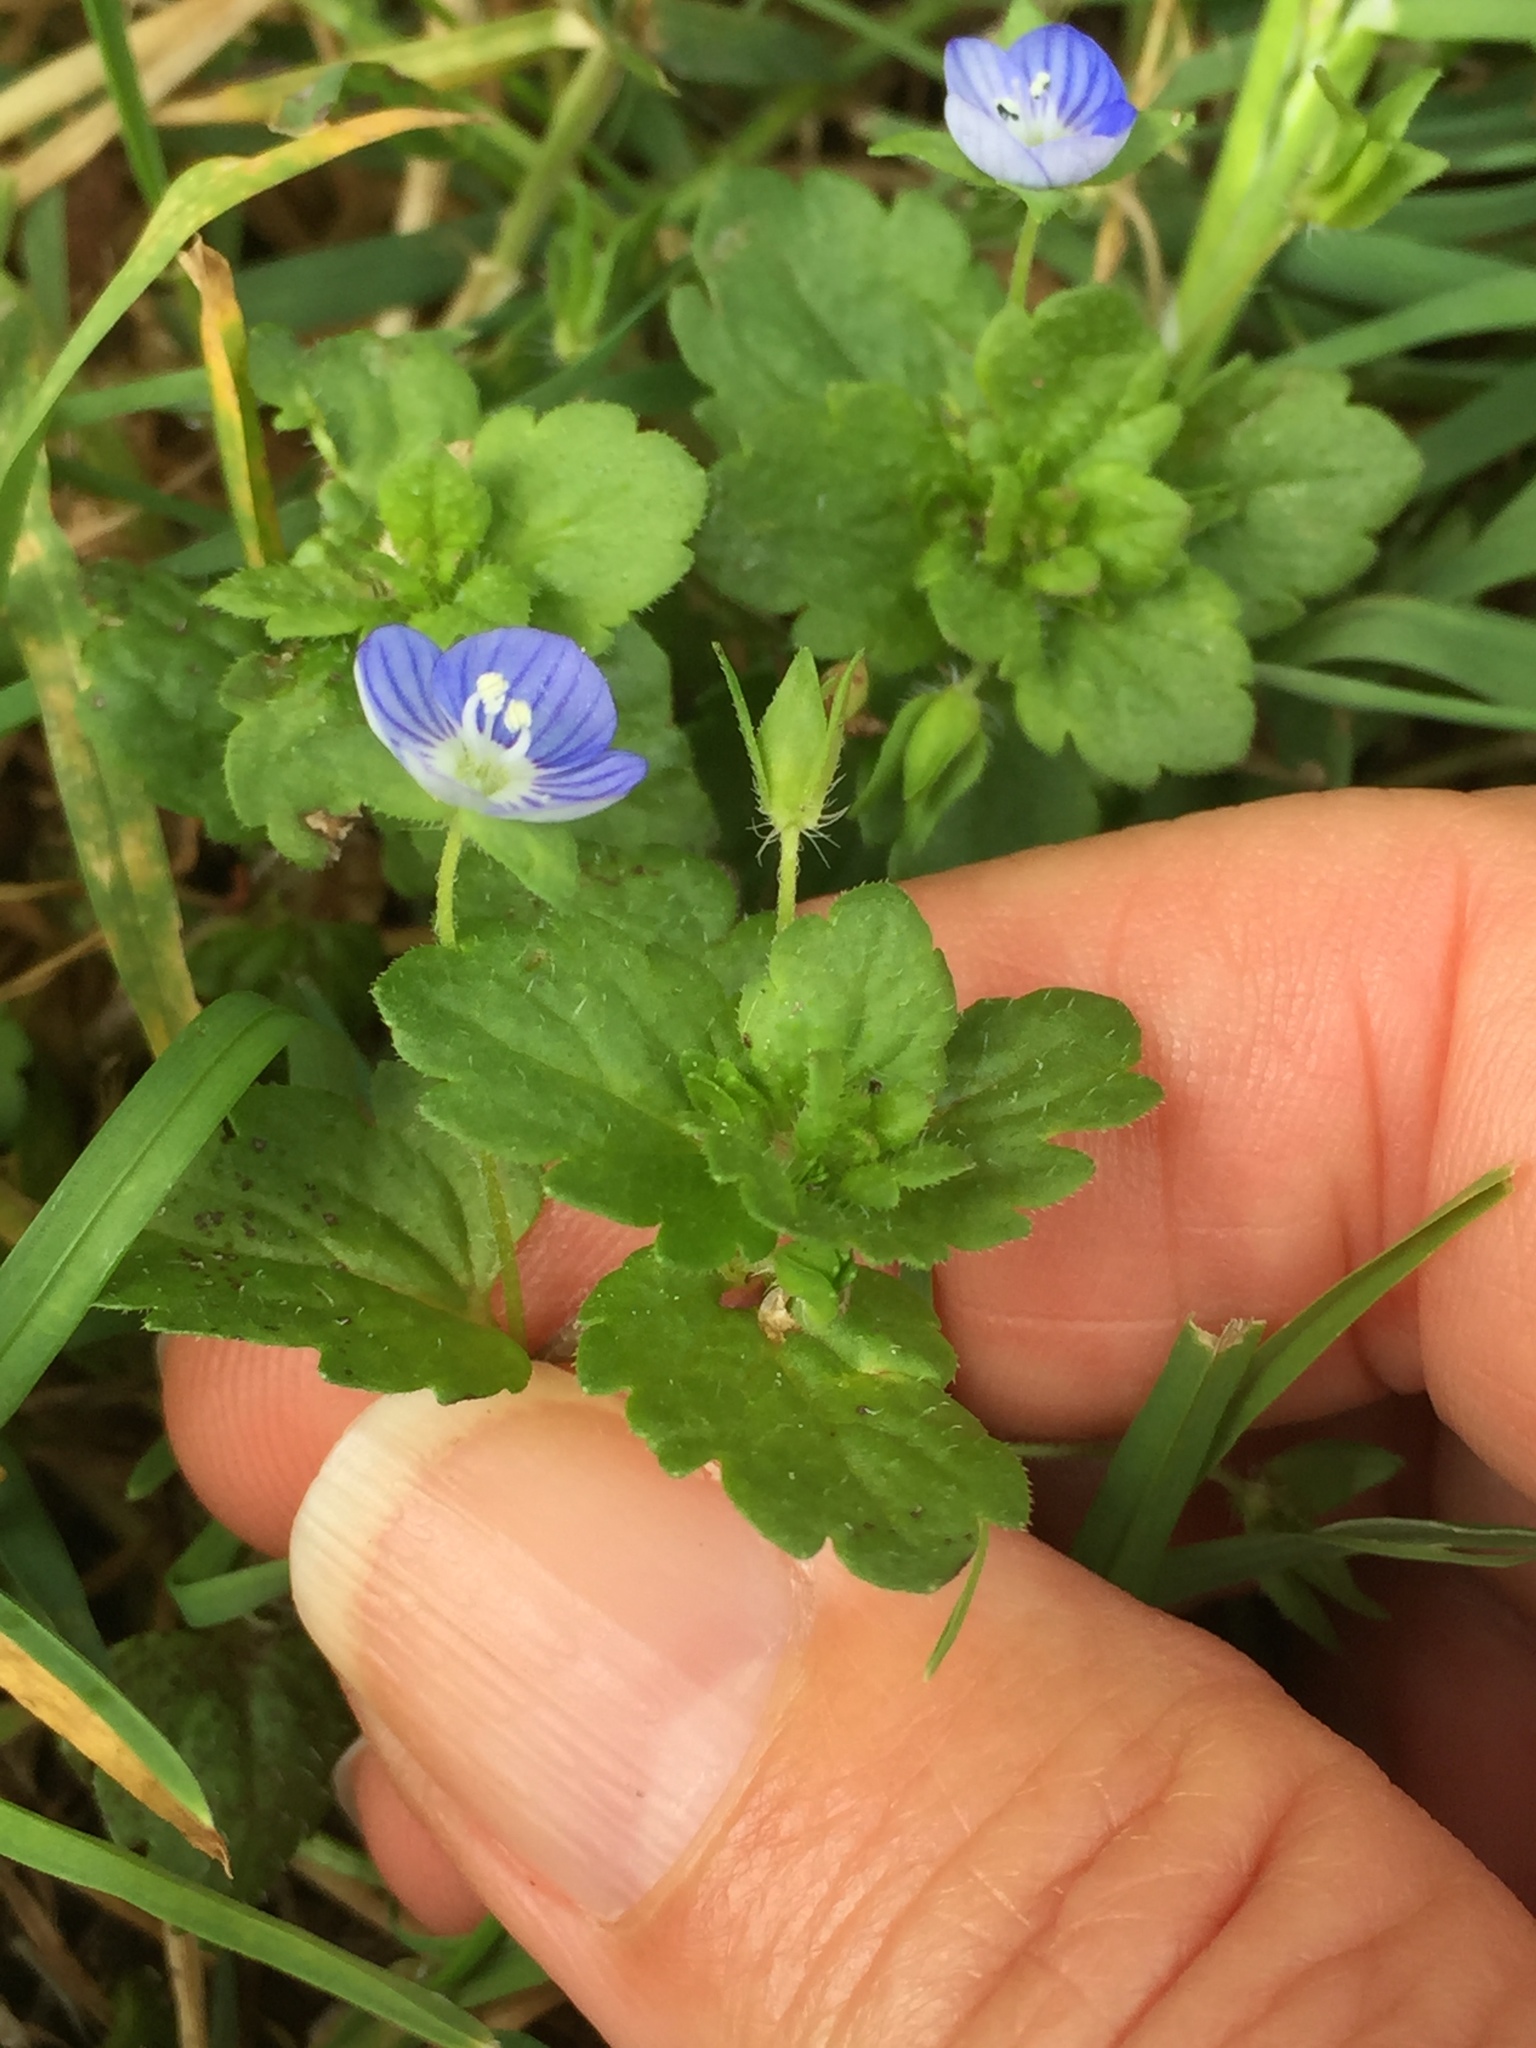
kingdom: Plantae
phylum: Tracheophyta
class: Magnoliopsida
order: Lamiales
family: Plantaginaceae
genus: Veronica
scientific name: Veronica persica
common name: Common field-speedwell
